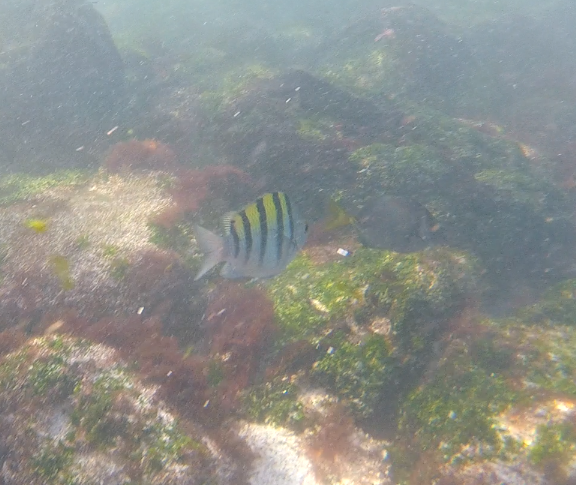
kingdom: Animalia
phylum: Chordata
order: Perciformes
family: Acanthuridae
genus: Prionurus
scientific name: Prionurus laticlavius
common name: Razor surgeonfish
